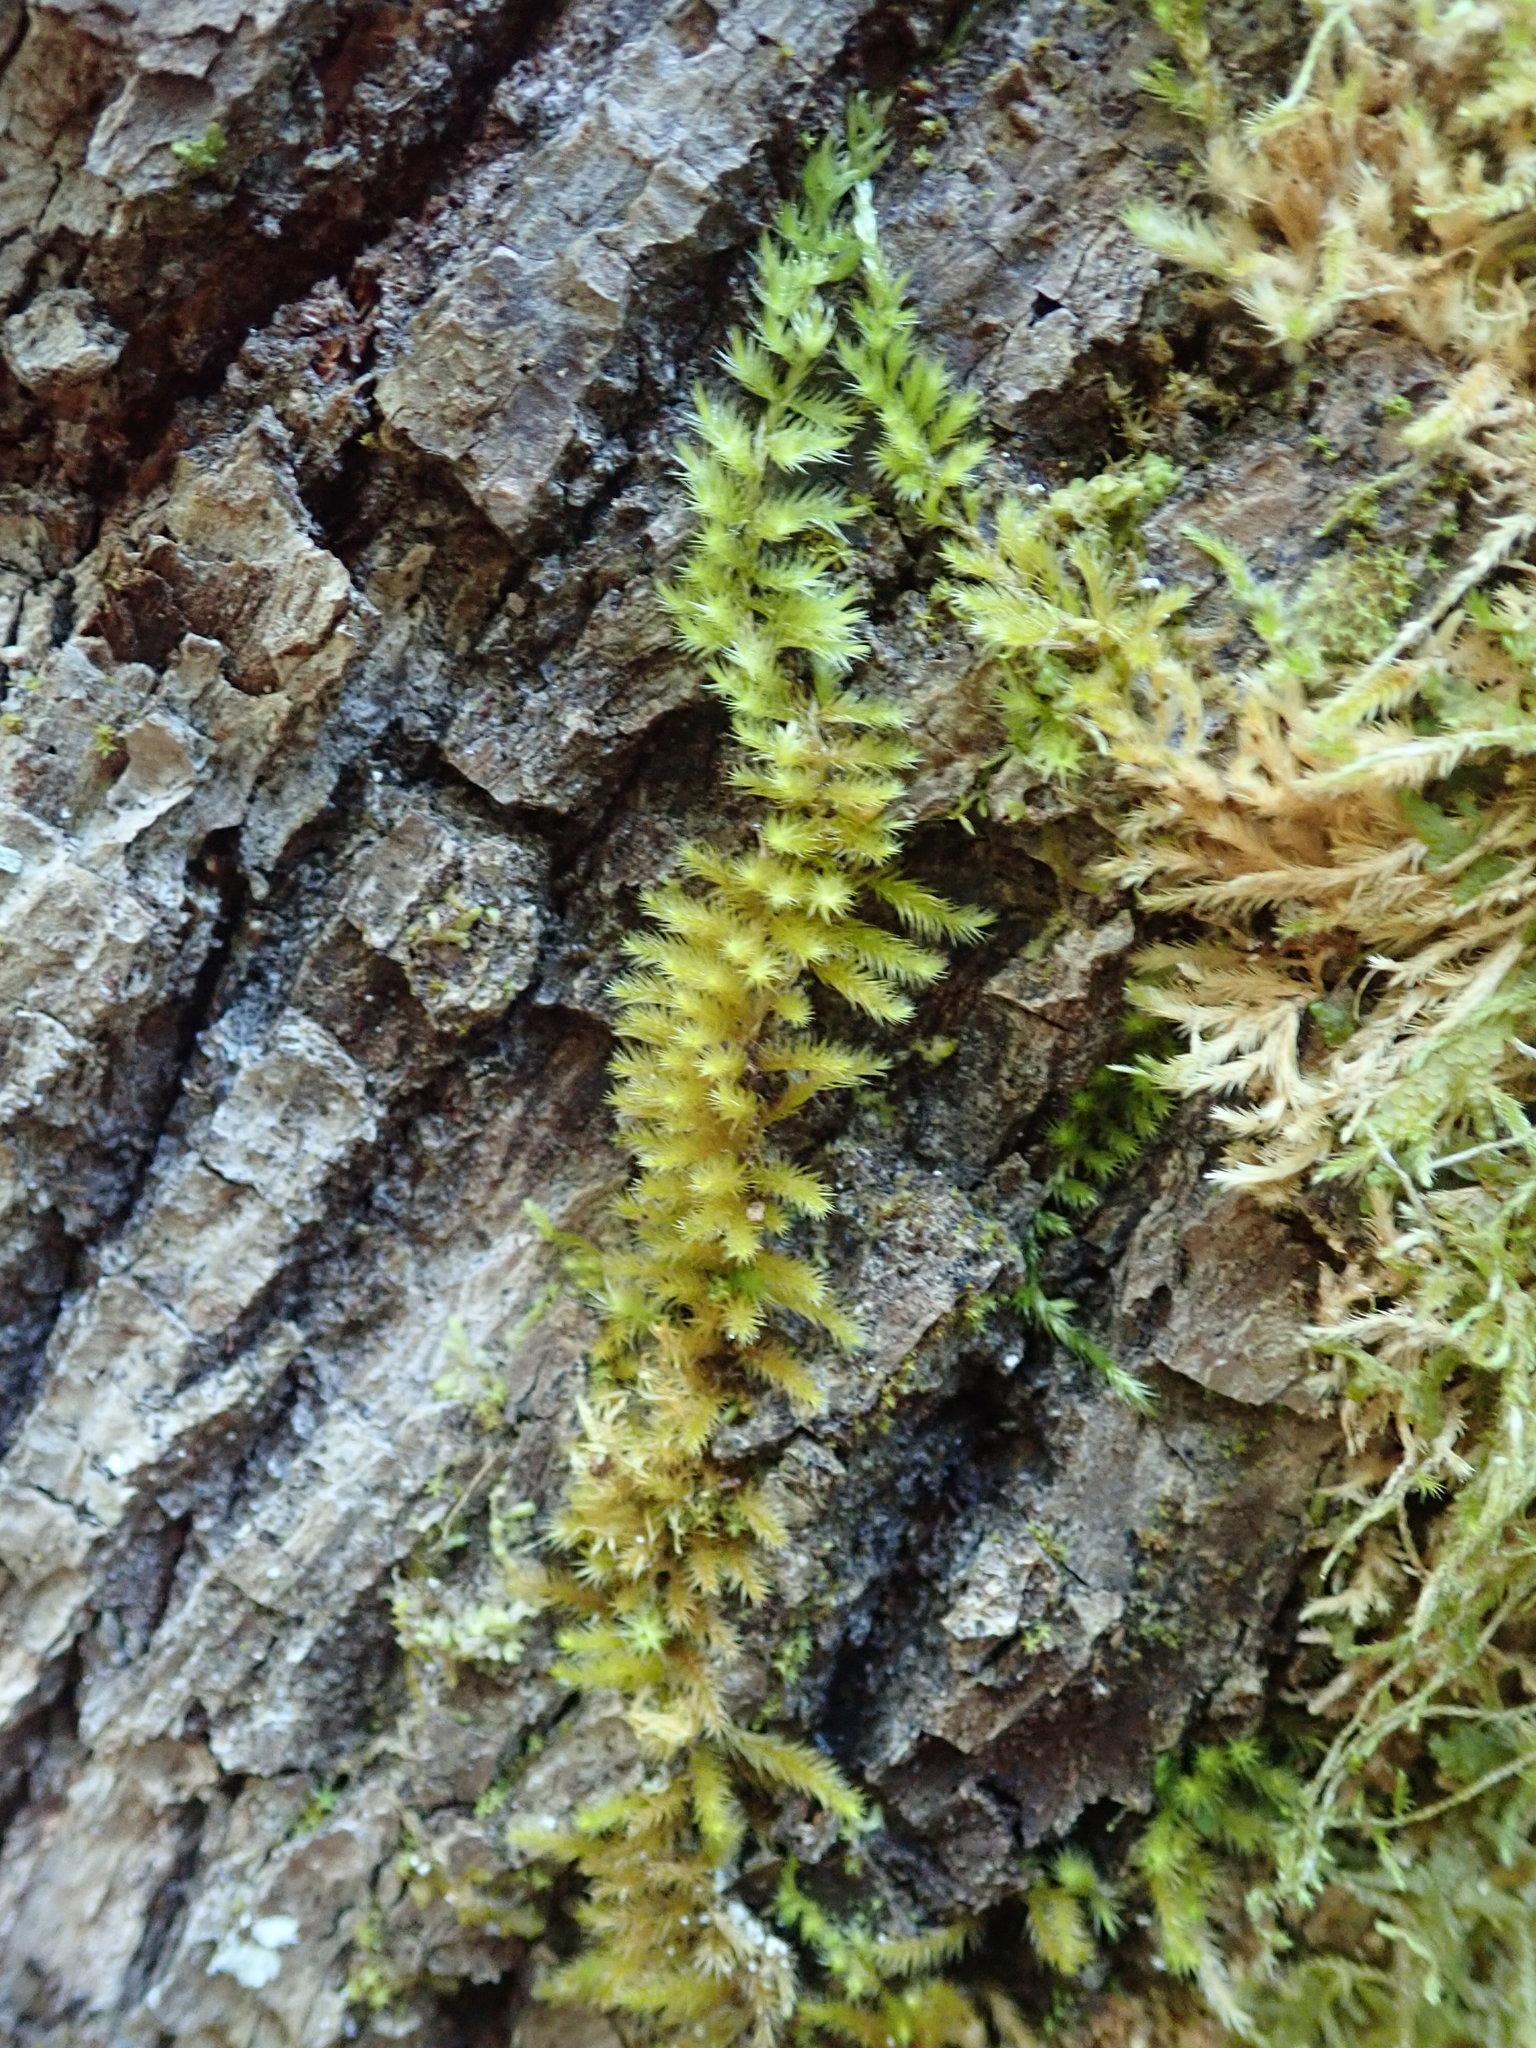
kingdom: Plantae
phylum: Bryophyta
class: Bryopsida
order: Hypnales
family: Brachytheciaceae
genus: Homalothecium
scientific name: Homalothecium fulgescens
